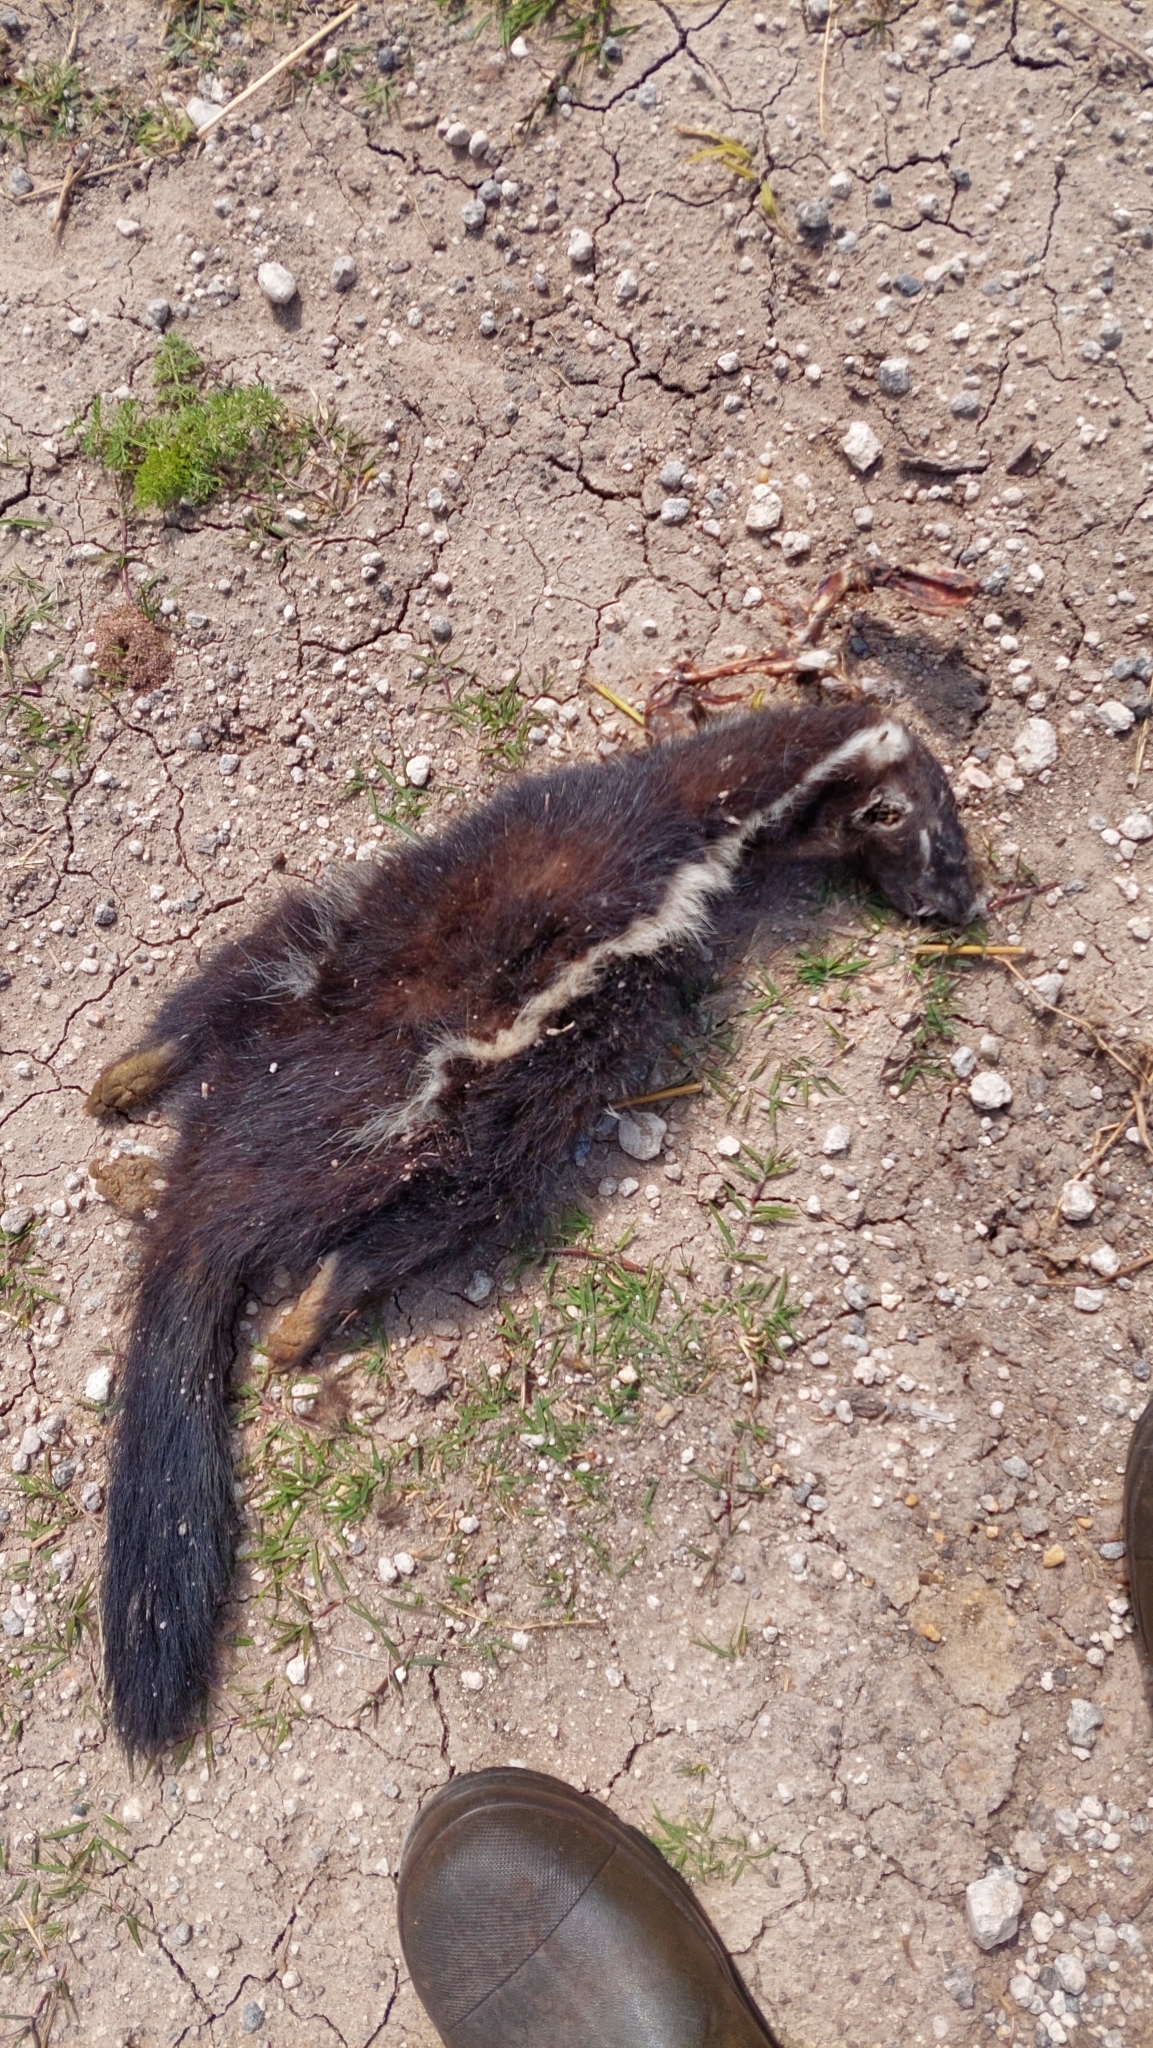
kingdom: Animalia
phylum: Chordata
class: Mammalia
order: Carnivora
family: Mephitidae
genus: Conepatus
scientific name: Conepatus chinga
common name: Molina's hog-nosed skunk
